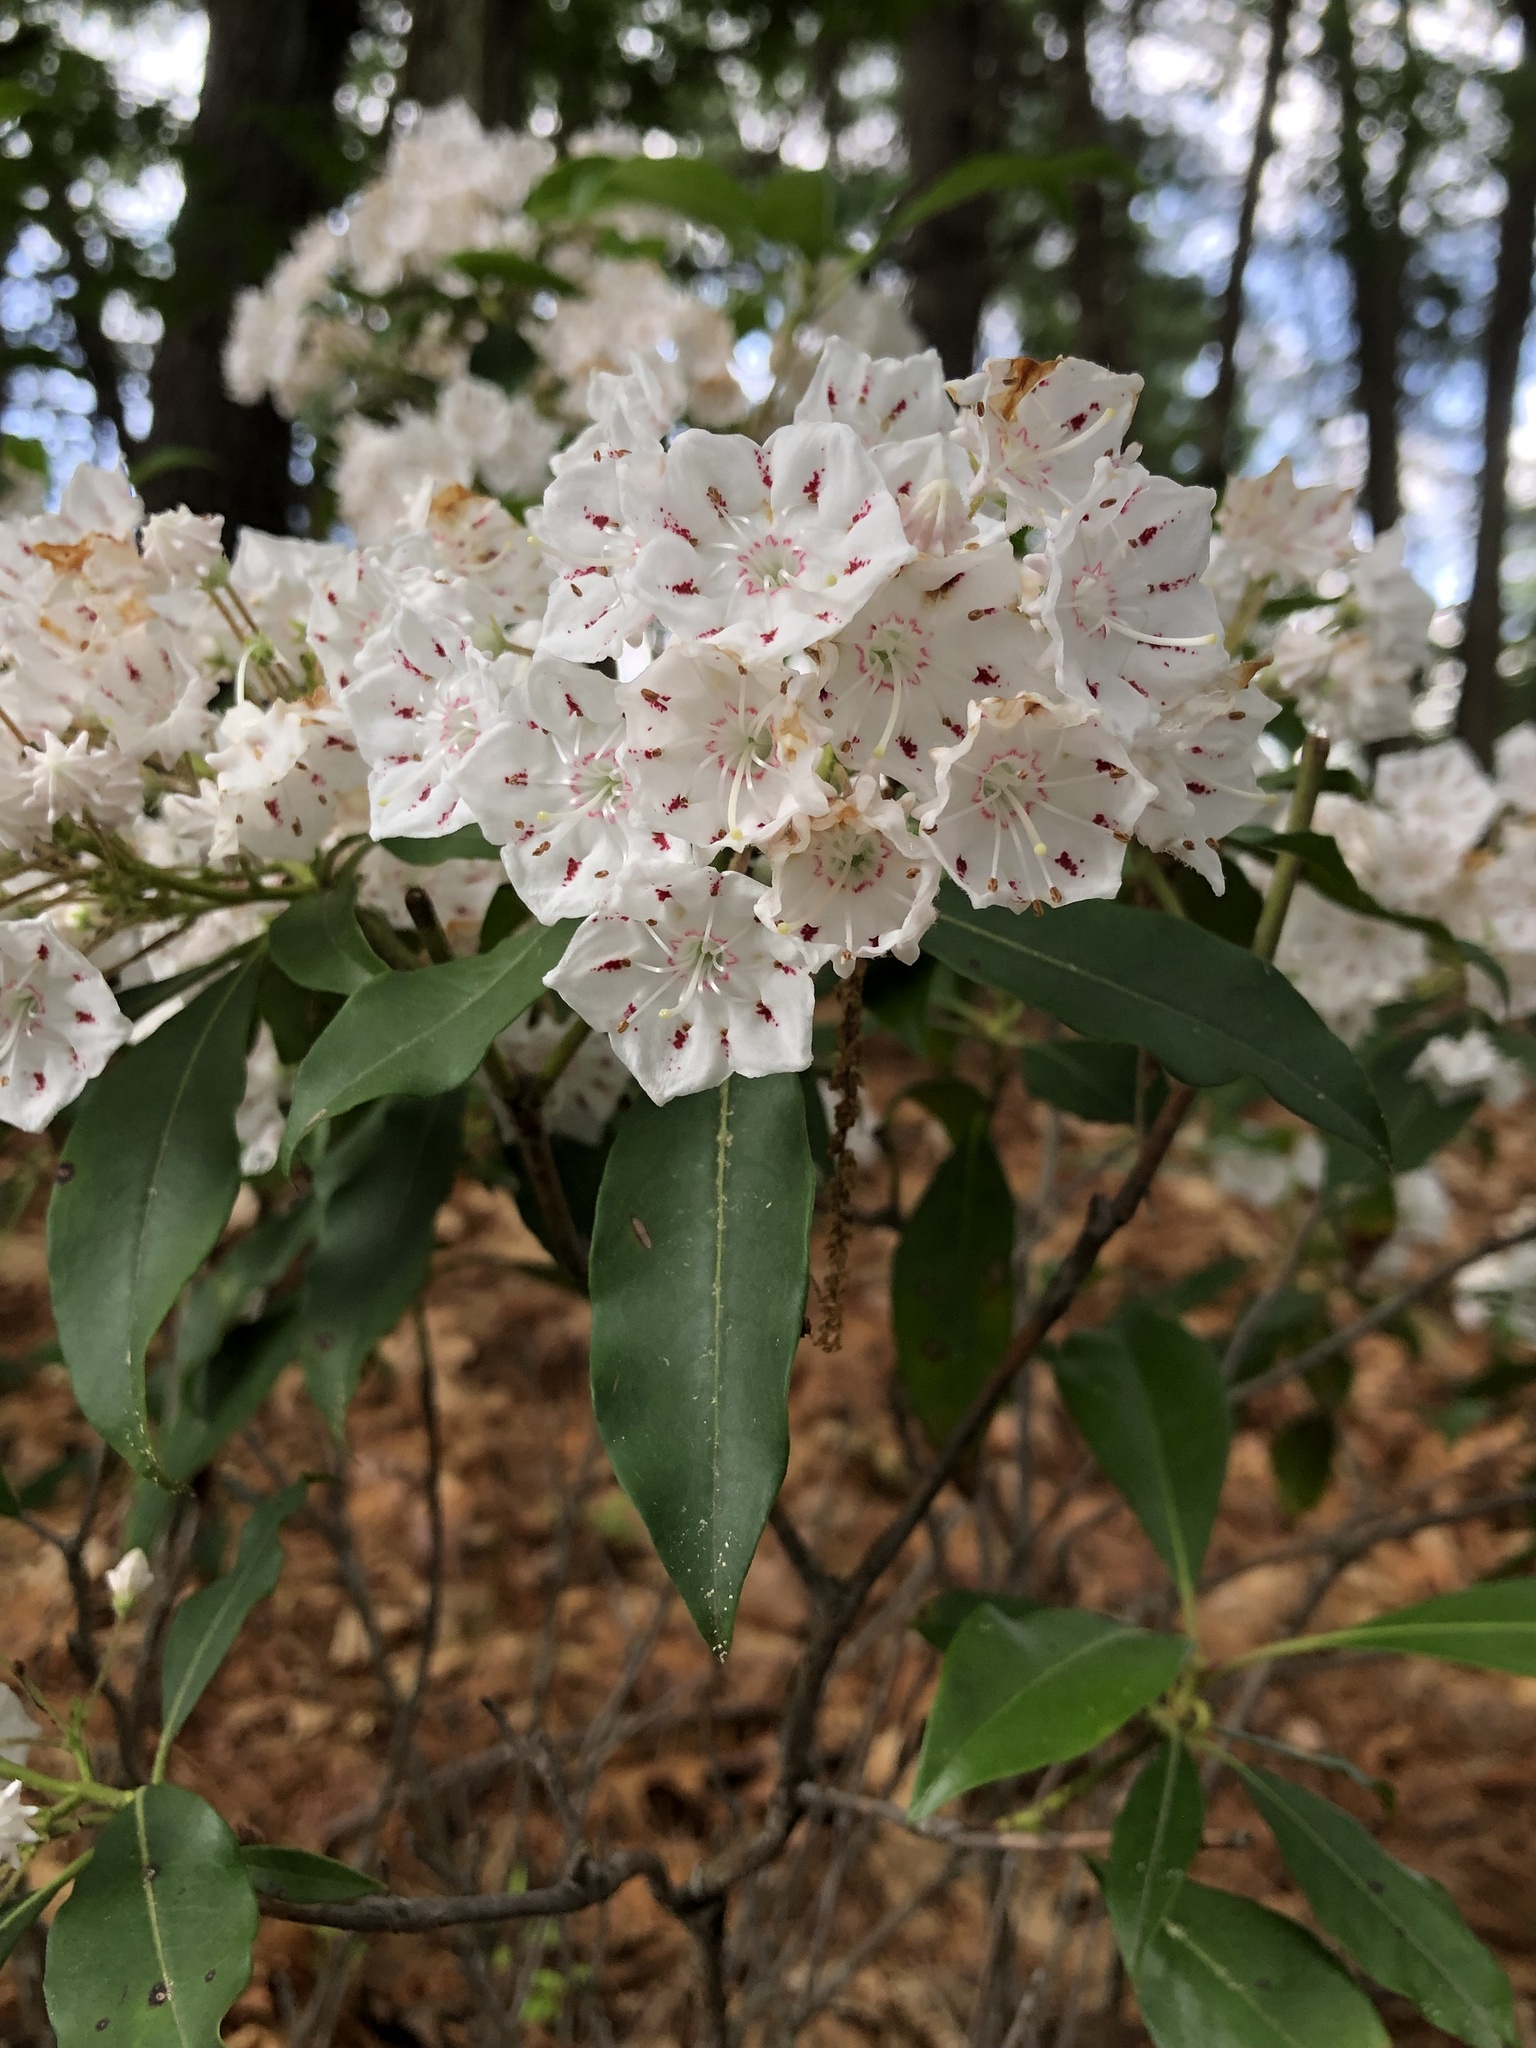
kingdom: Plantae
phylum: Tracheophyta
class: Magnoliopsida
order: Ericales
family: Ericaceae
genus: Kalmia
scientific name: Kalmia latifolia
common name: Mountain-laurel
